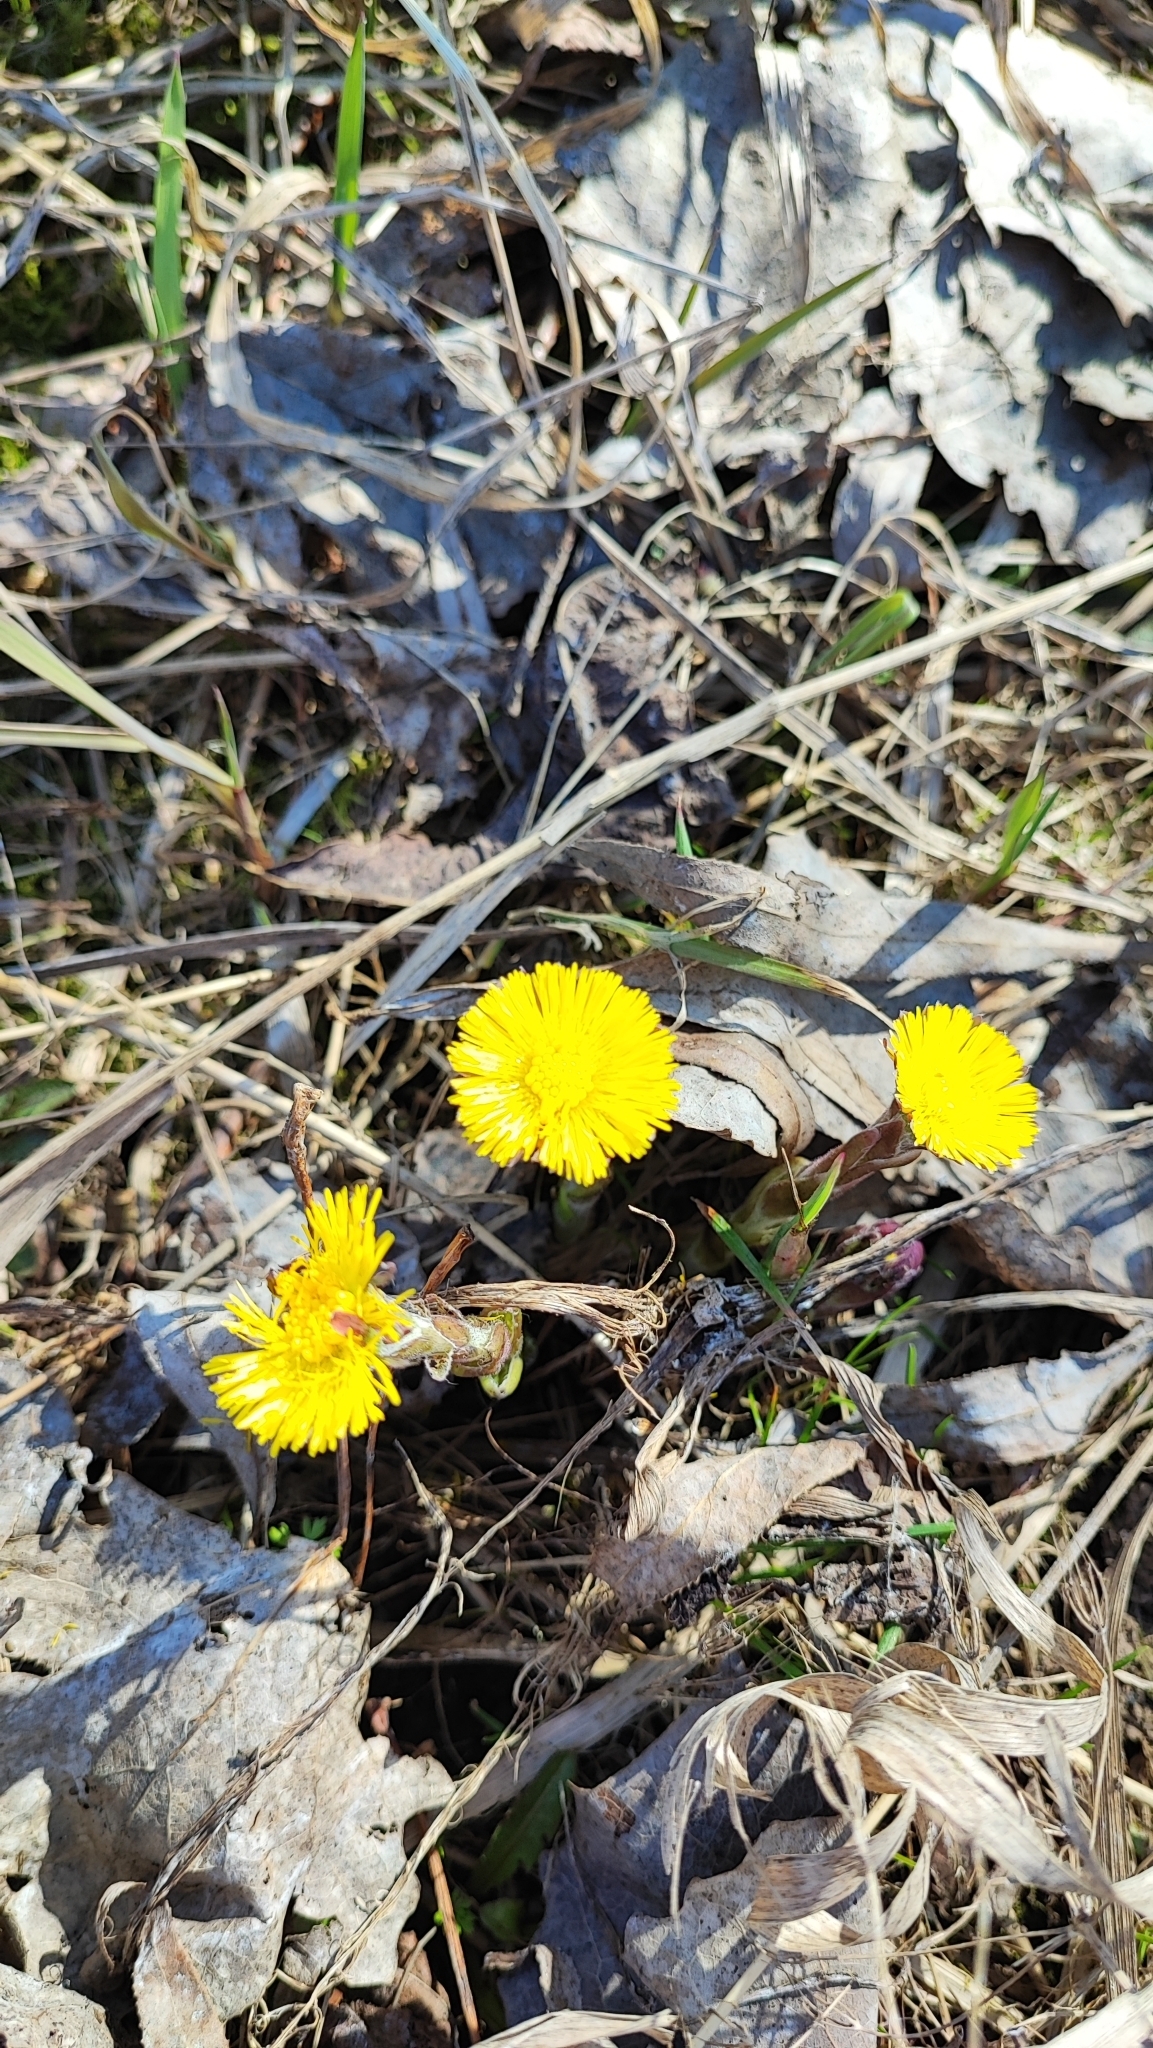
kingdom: Plantae
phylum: Tracheophyta
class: Magnoliopsida
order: Asterales
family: Asteraceae
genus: Tussilago
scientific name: Tussilago farfara
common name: Coltsfoot
